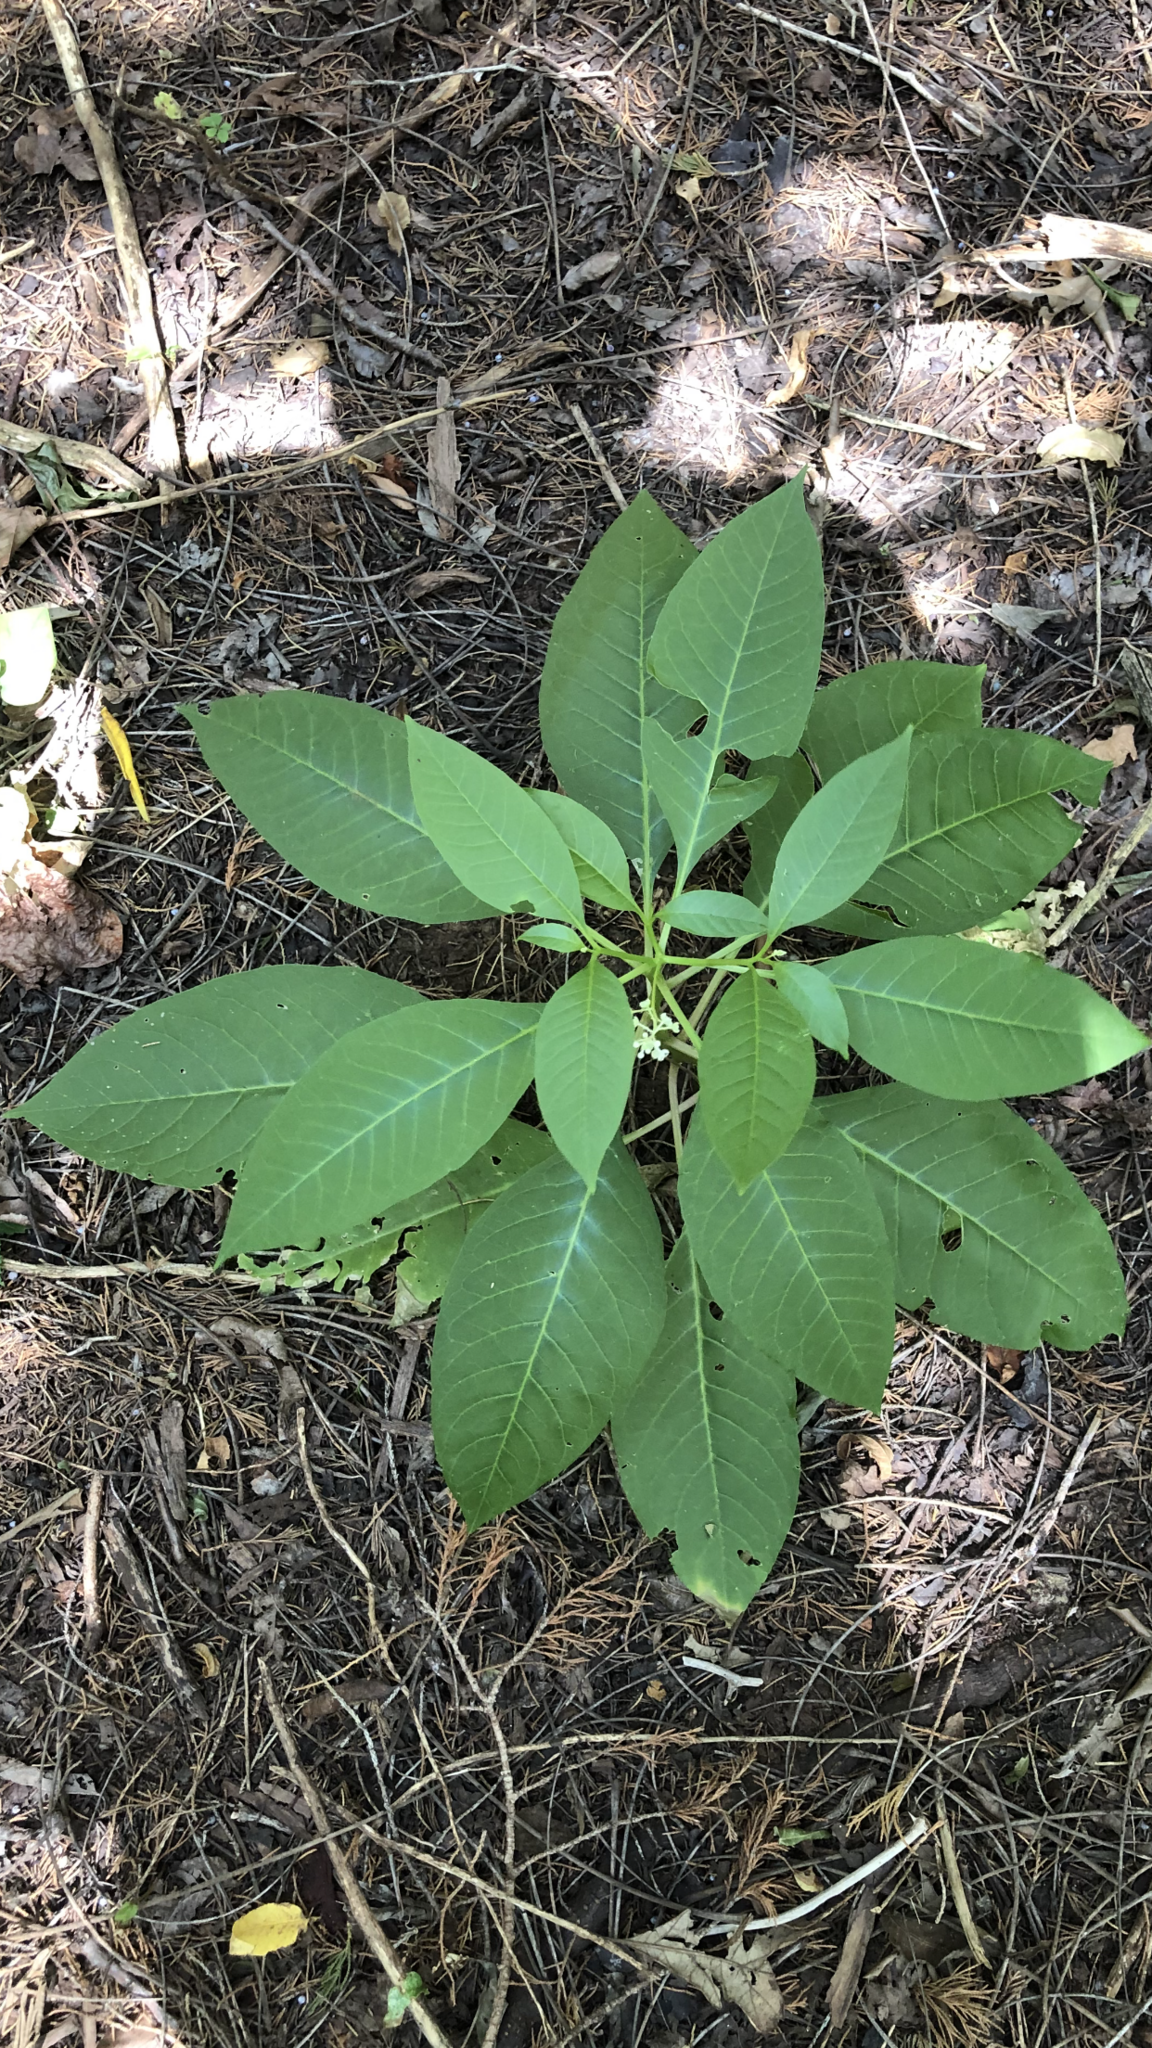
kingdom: Plantae
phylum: Tracheophyta
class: Magnoliopsida
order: Caryophyllales
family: Phytolaccaceae
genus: Phytolacca
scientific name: Phytolacca americana
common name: American pokeweed
